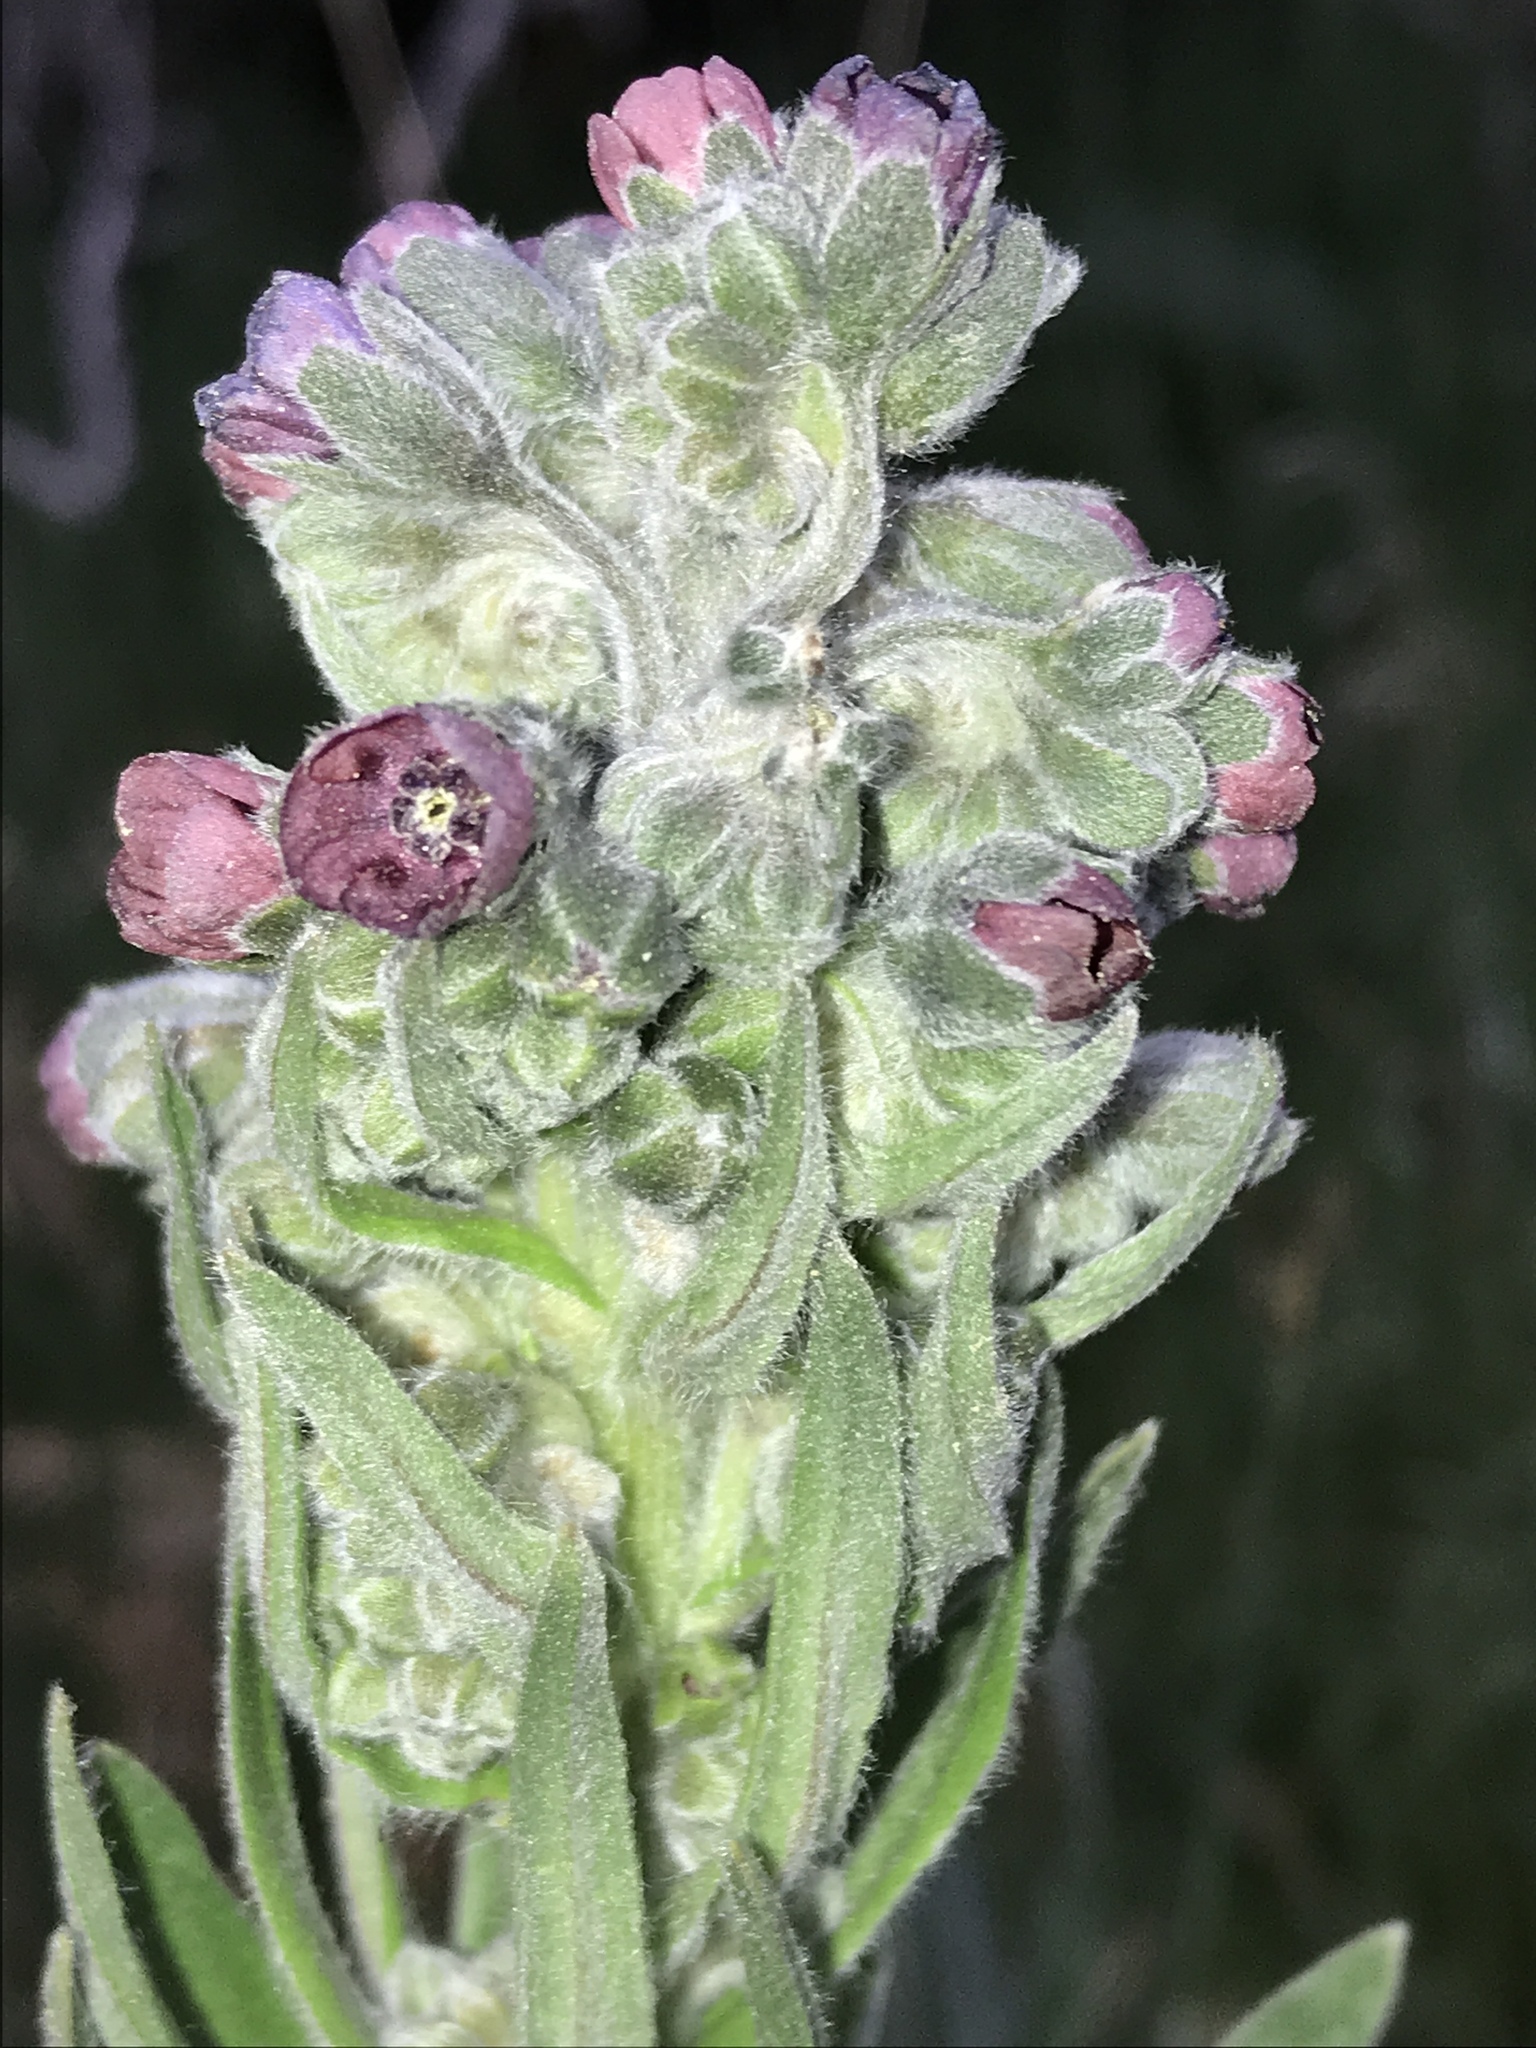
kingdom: Plantae
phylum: Tracheophyta
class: Magnoliopsida
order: Boraginales
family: Boraginaceae
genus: Cynoglossum
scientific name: Cynoglossum officinale
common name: Hound's-tongue
